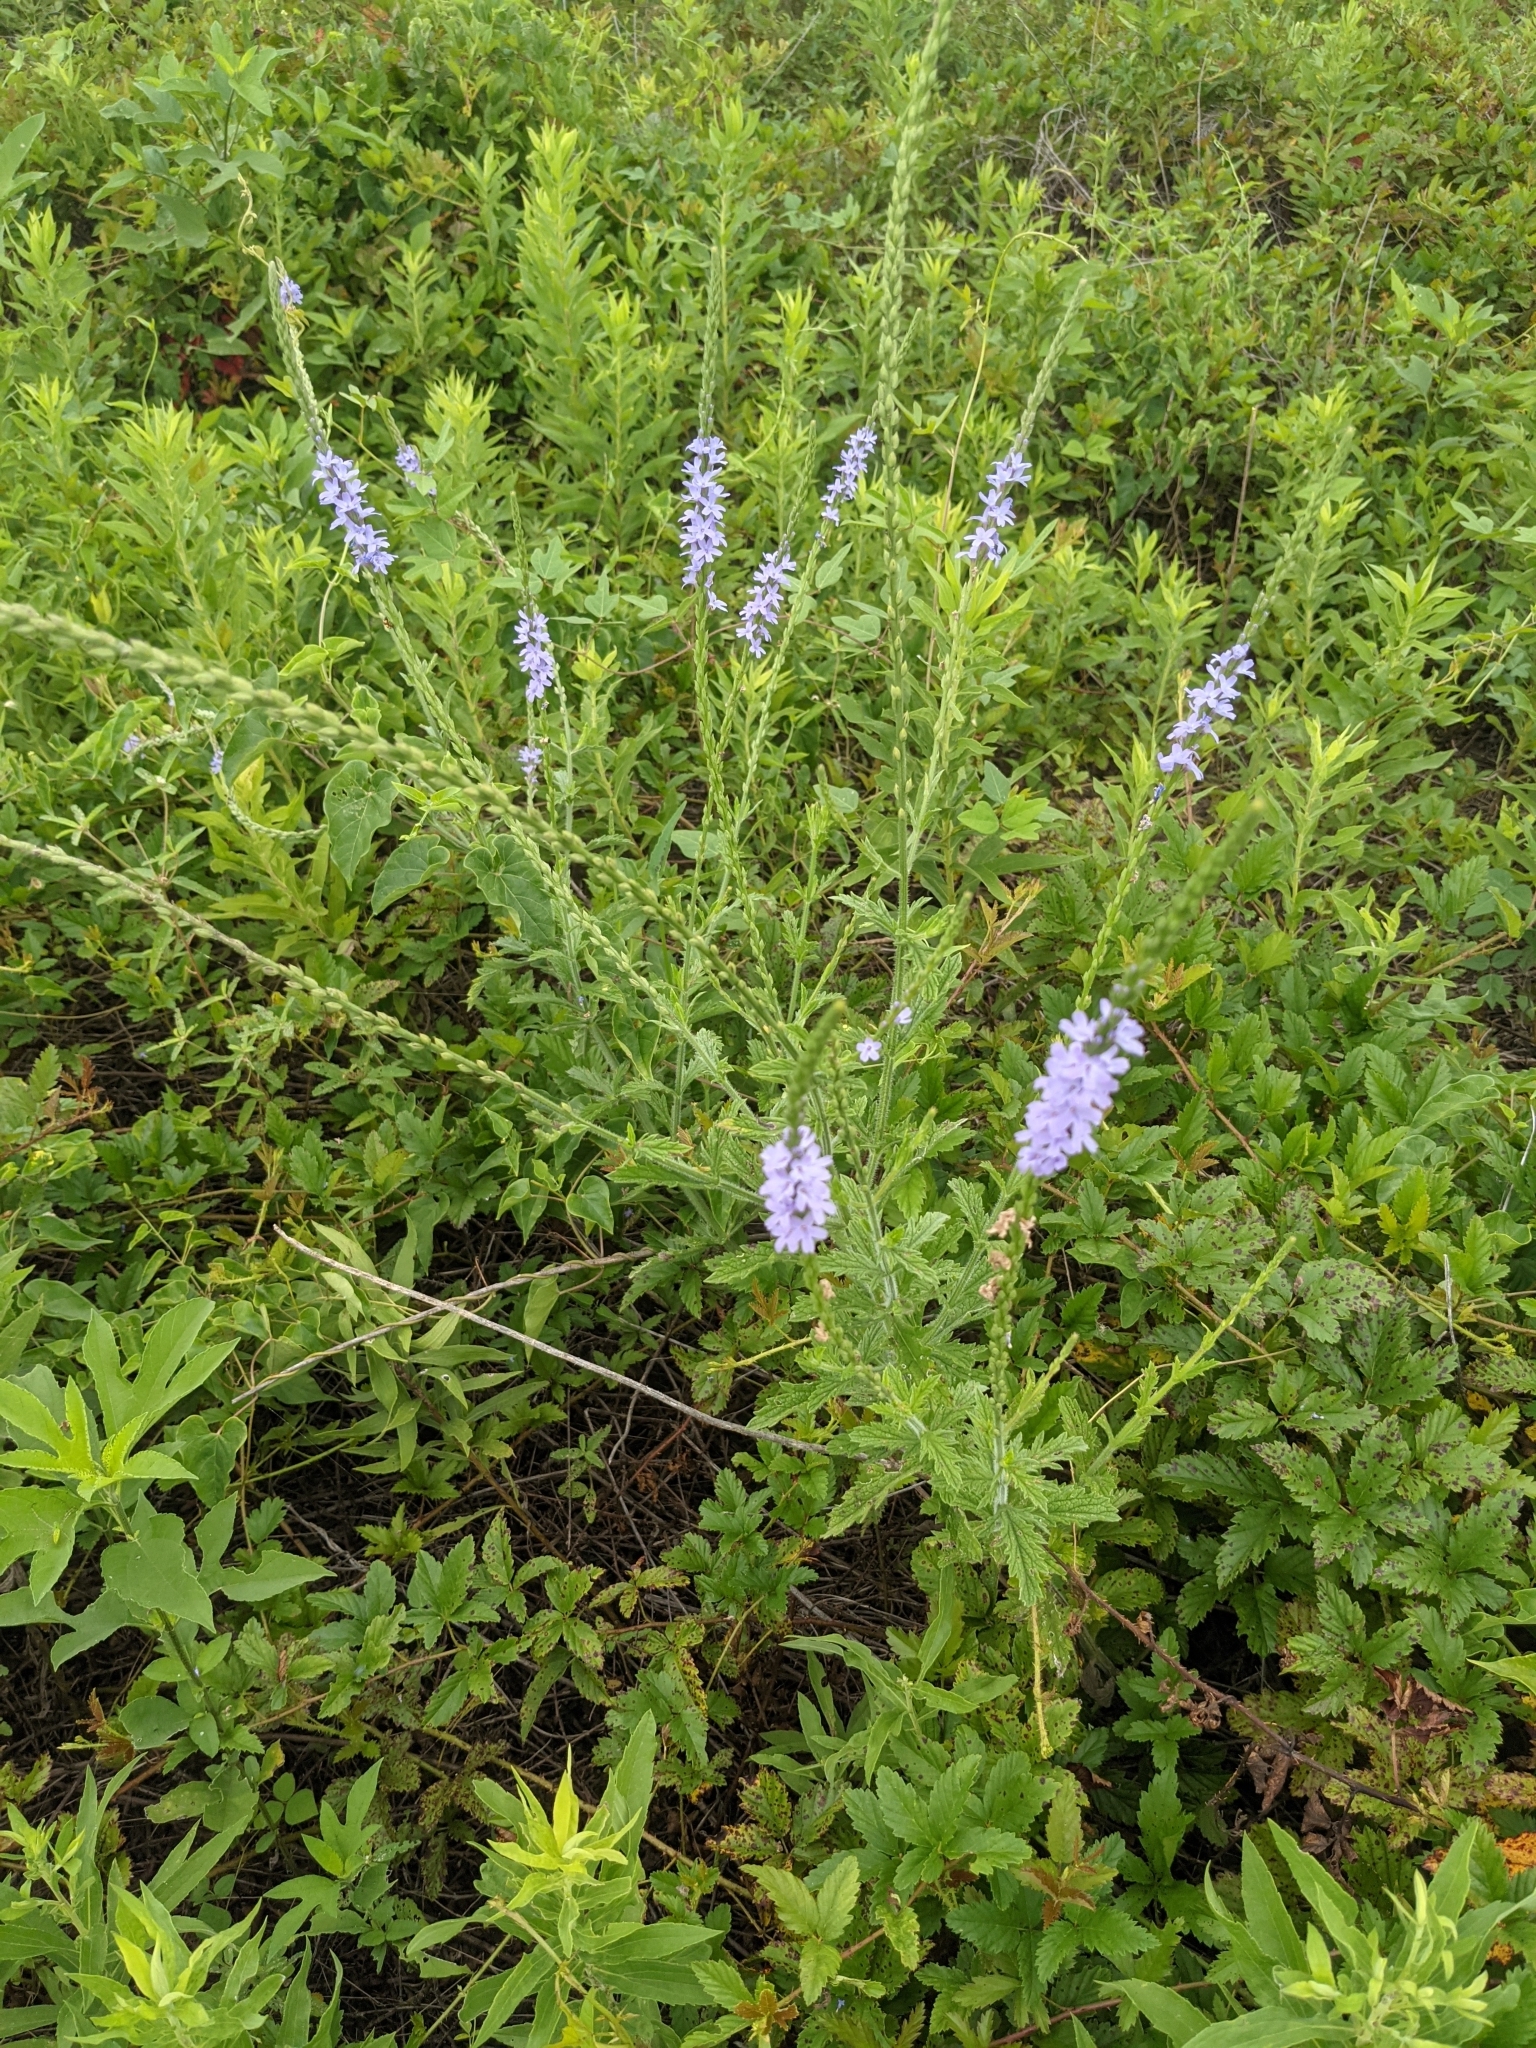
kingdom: Plantae
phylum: Tracheophyta
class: Magnoliopsida
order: Lamiales
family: Verbenaceae
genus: Verbena
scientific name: Verbena xutha
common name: Gulf vervain
